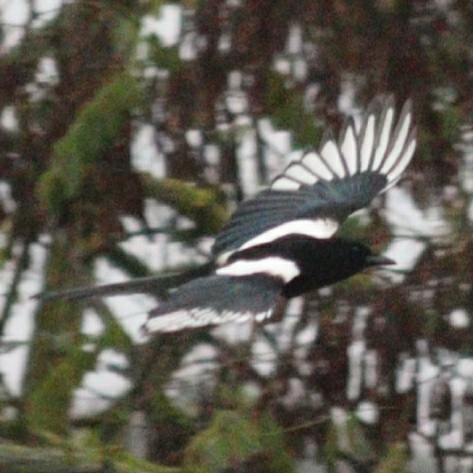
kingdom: Animalia
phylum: Chordata
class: Aves
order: Passeriformes
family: Corvidae
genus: Pica
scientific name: Pica pica
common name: Eurasian magpie
